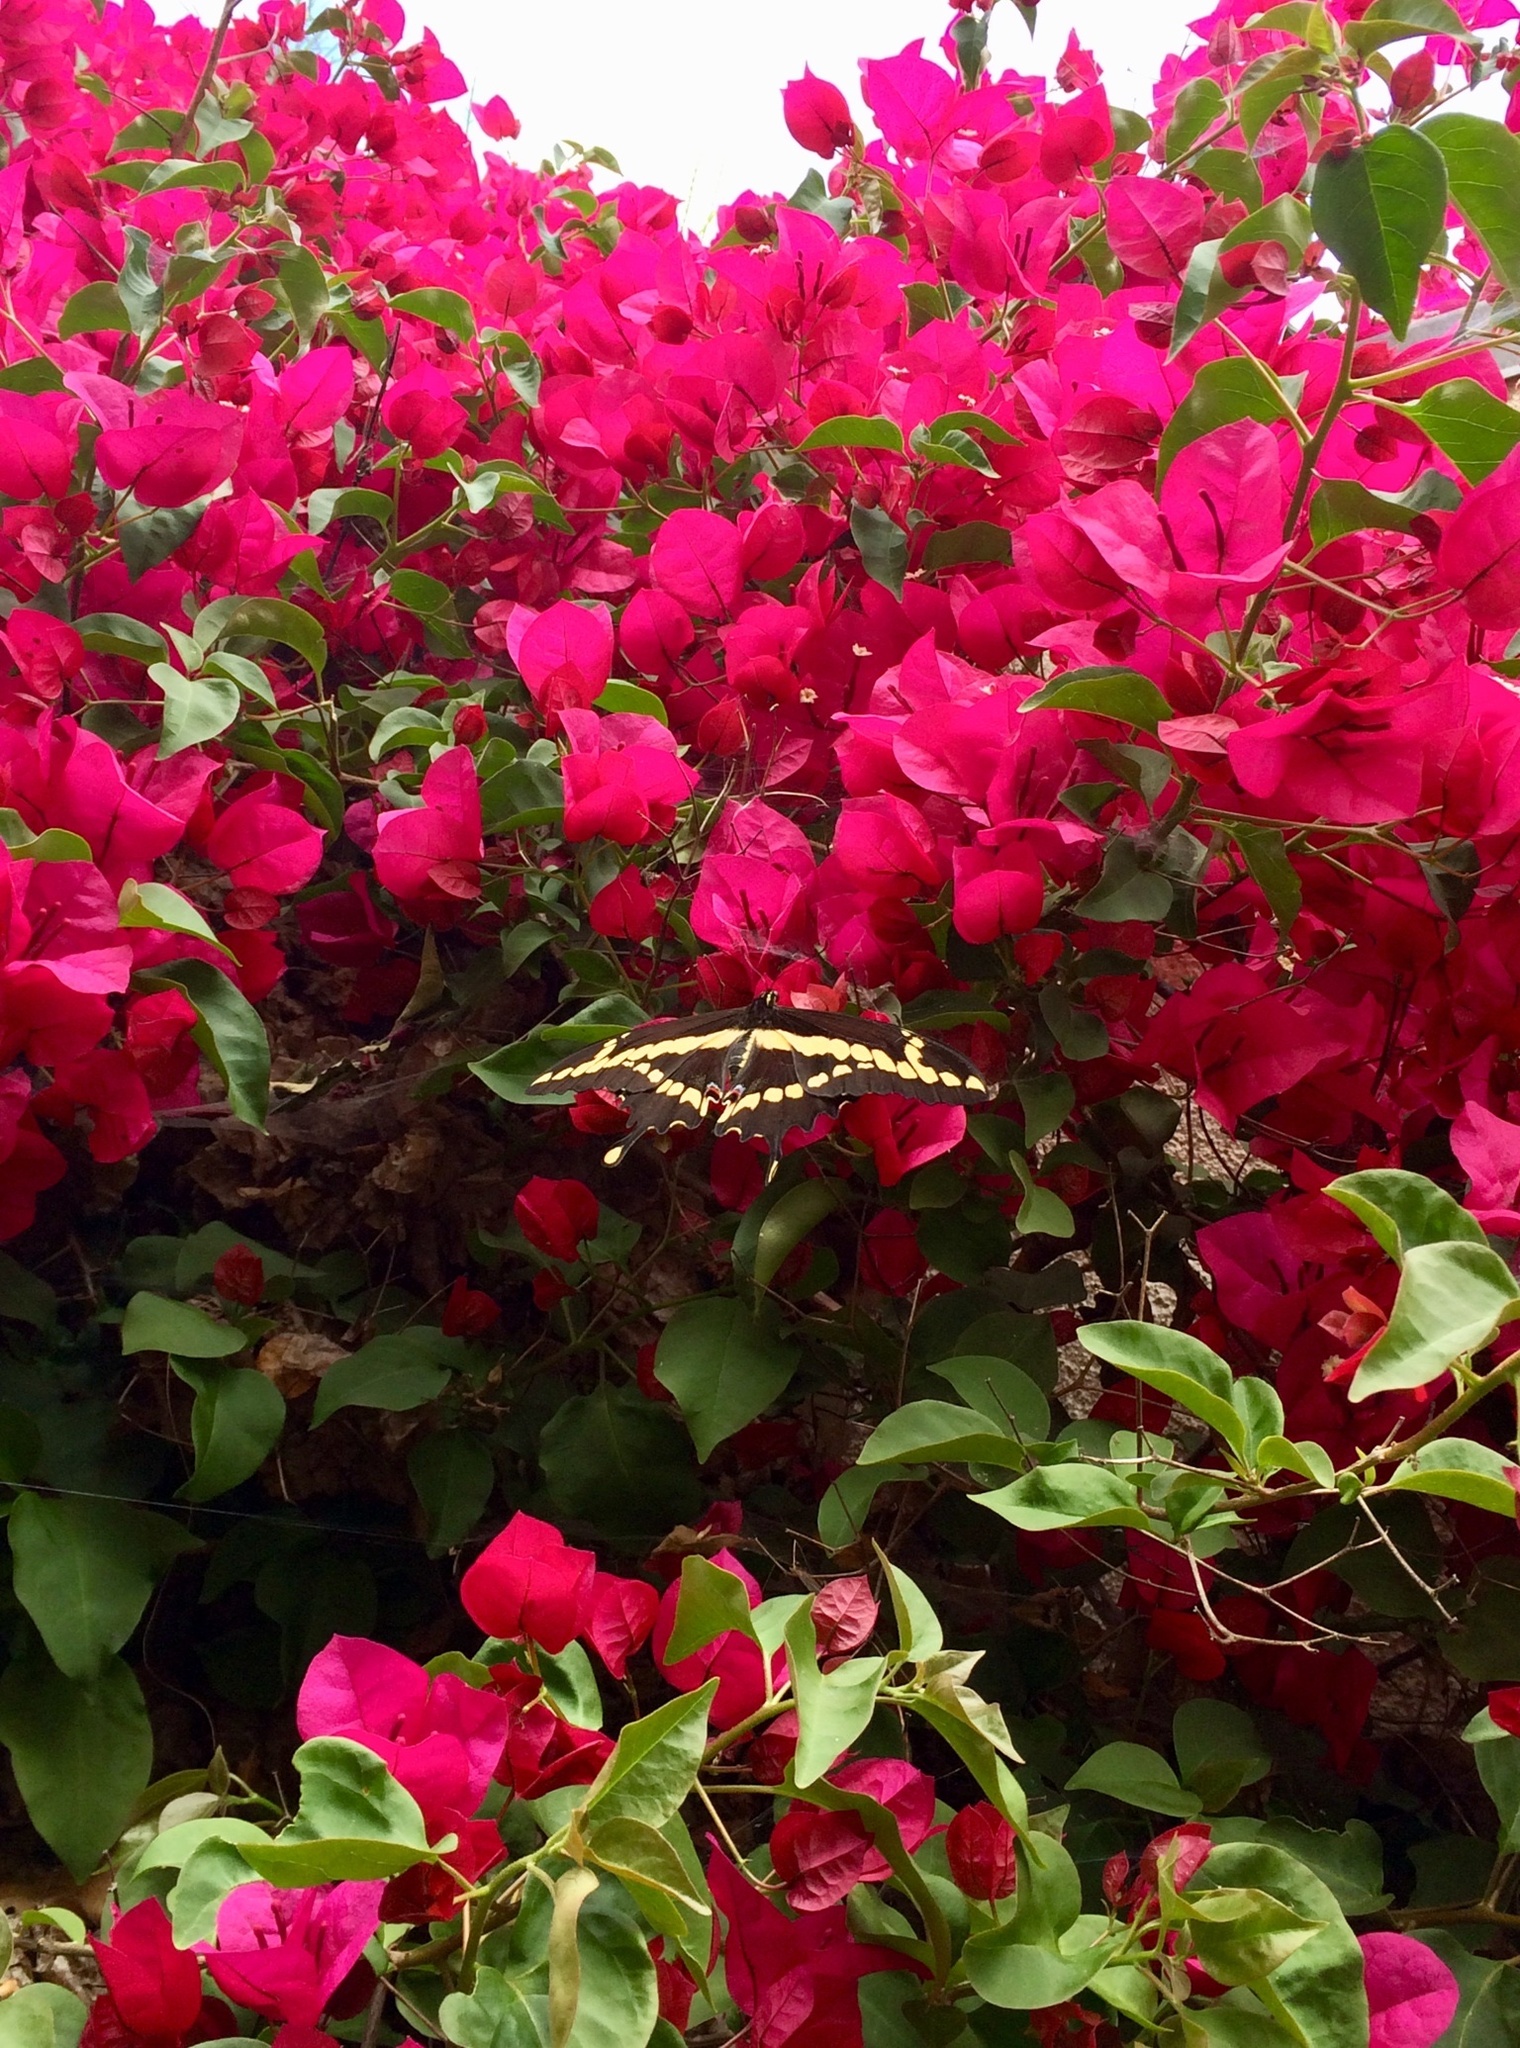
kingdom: Animalia
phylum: Arthropoda
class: Insecta
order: Lepidoptera
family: Papilionidae
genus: Papilio
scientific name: Papilio rumiko
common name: Western giant swallowtail
